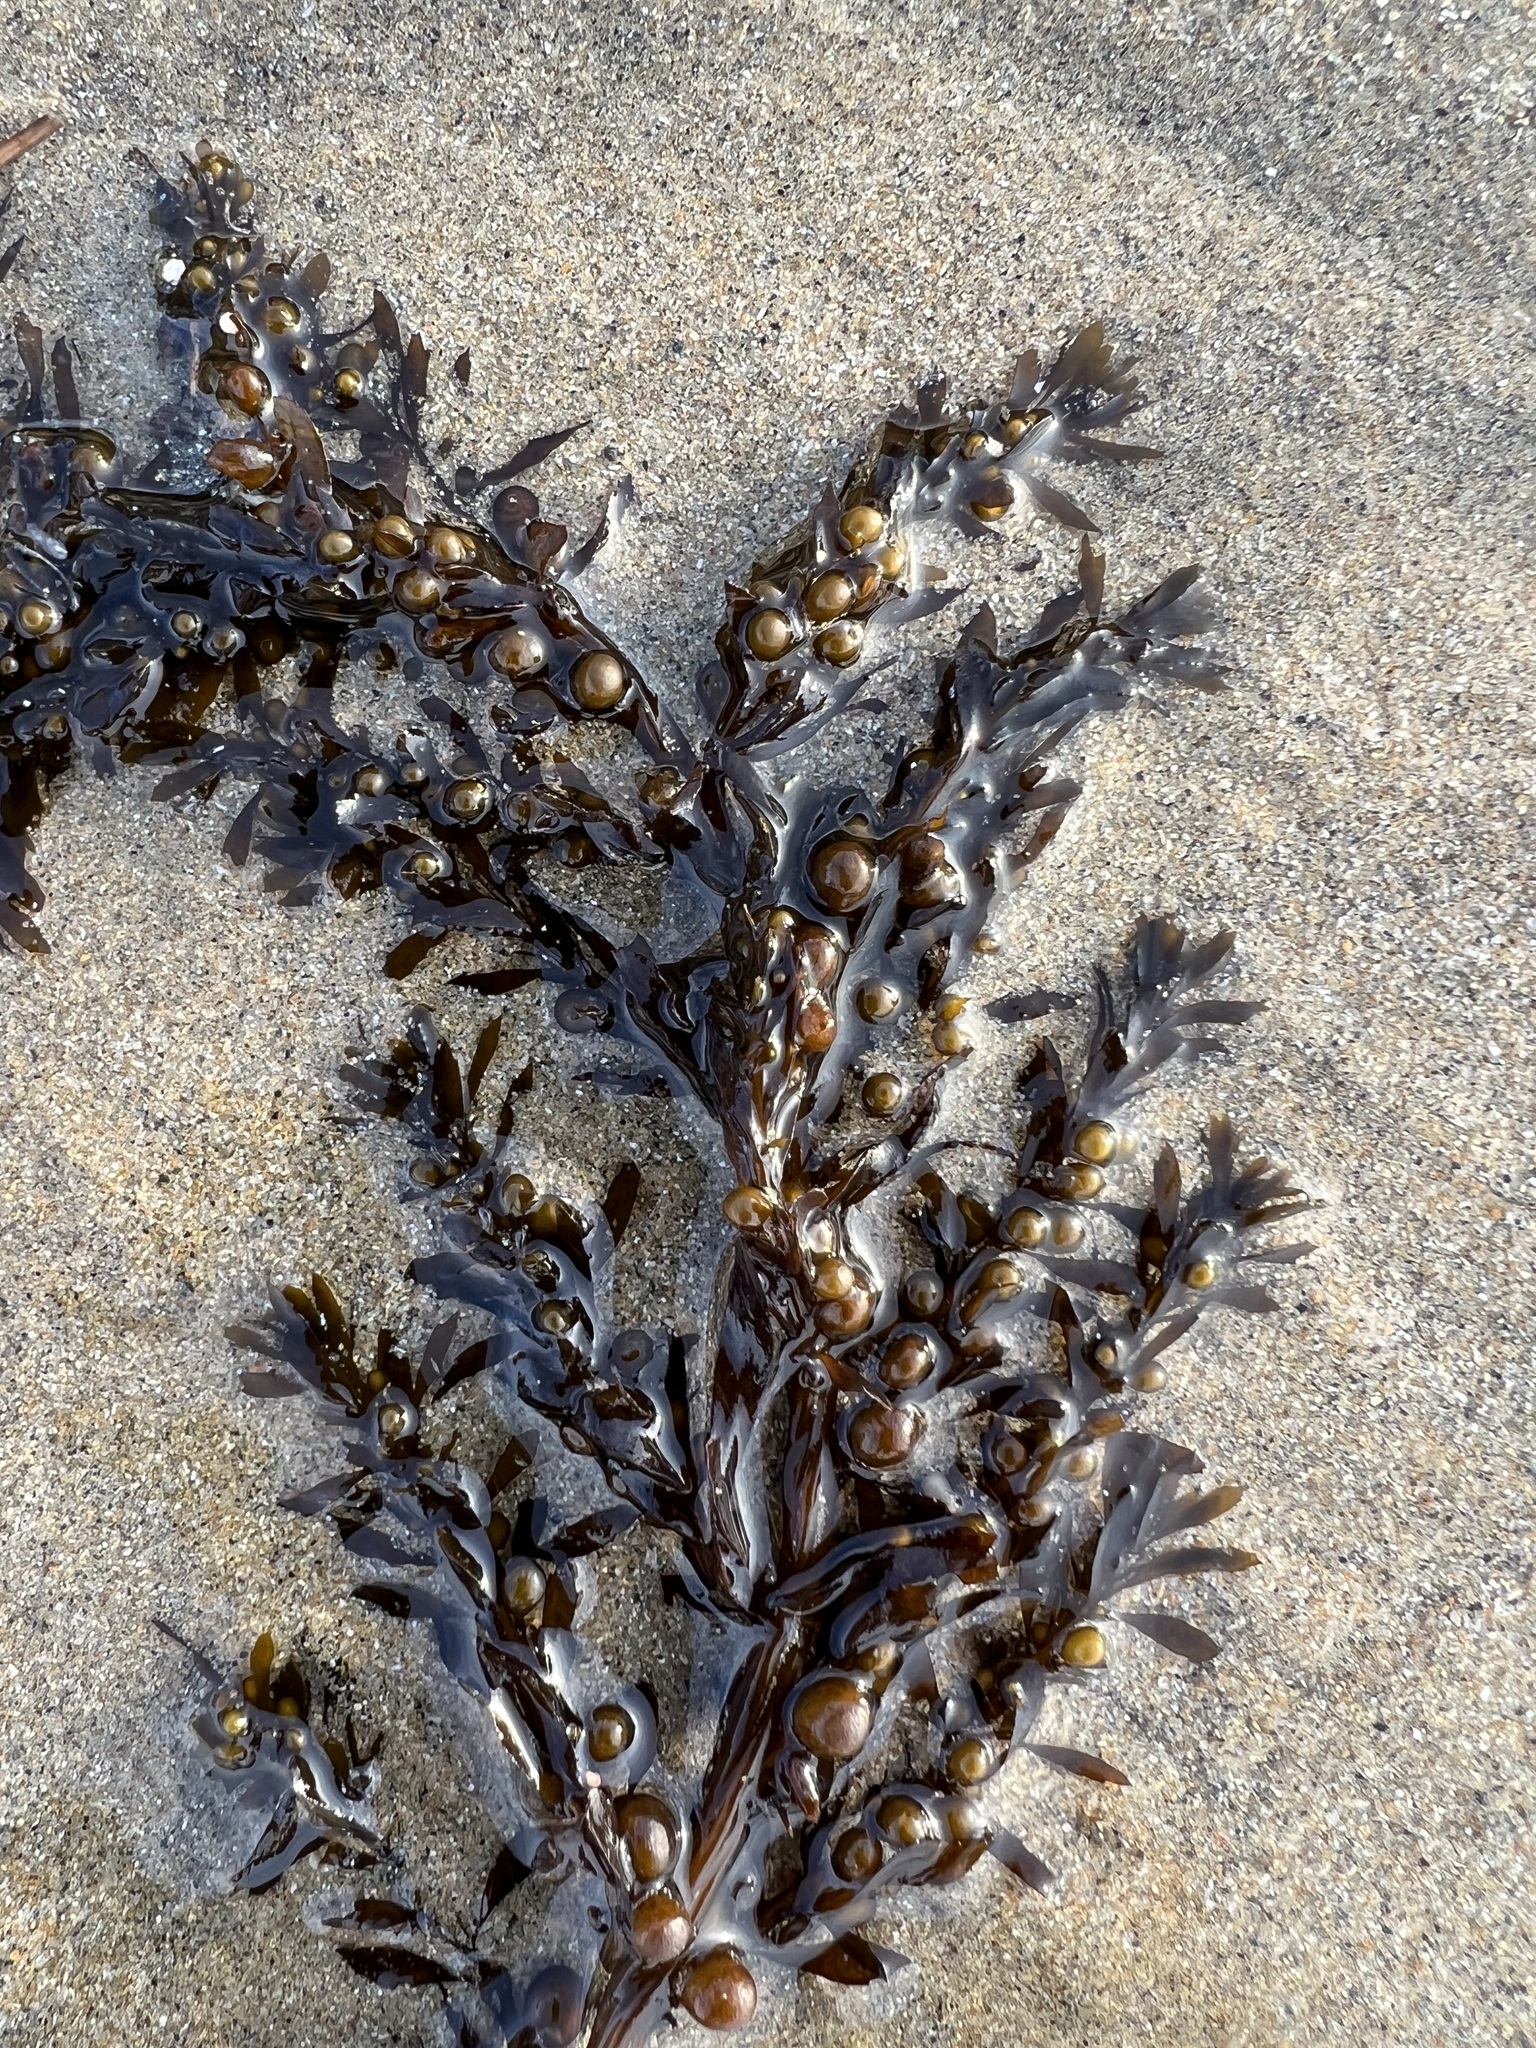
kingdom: Chromista
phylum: Ochrophyta
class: Phaeophyceae
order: Fucales
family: Sargassaceae
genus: Sargassum
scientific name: Sargassum muticum
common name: Japweed
